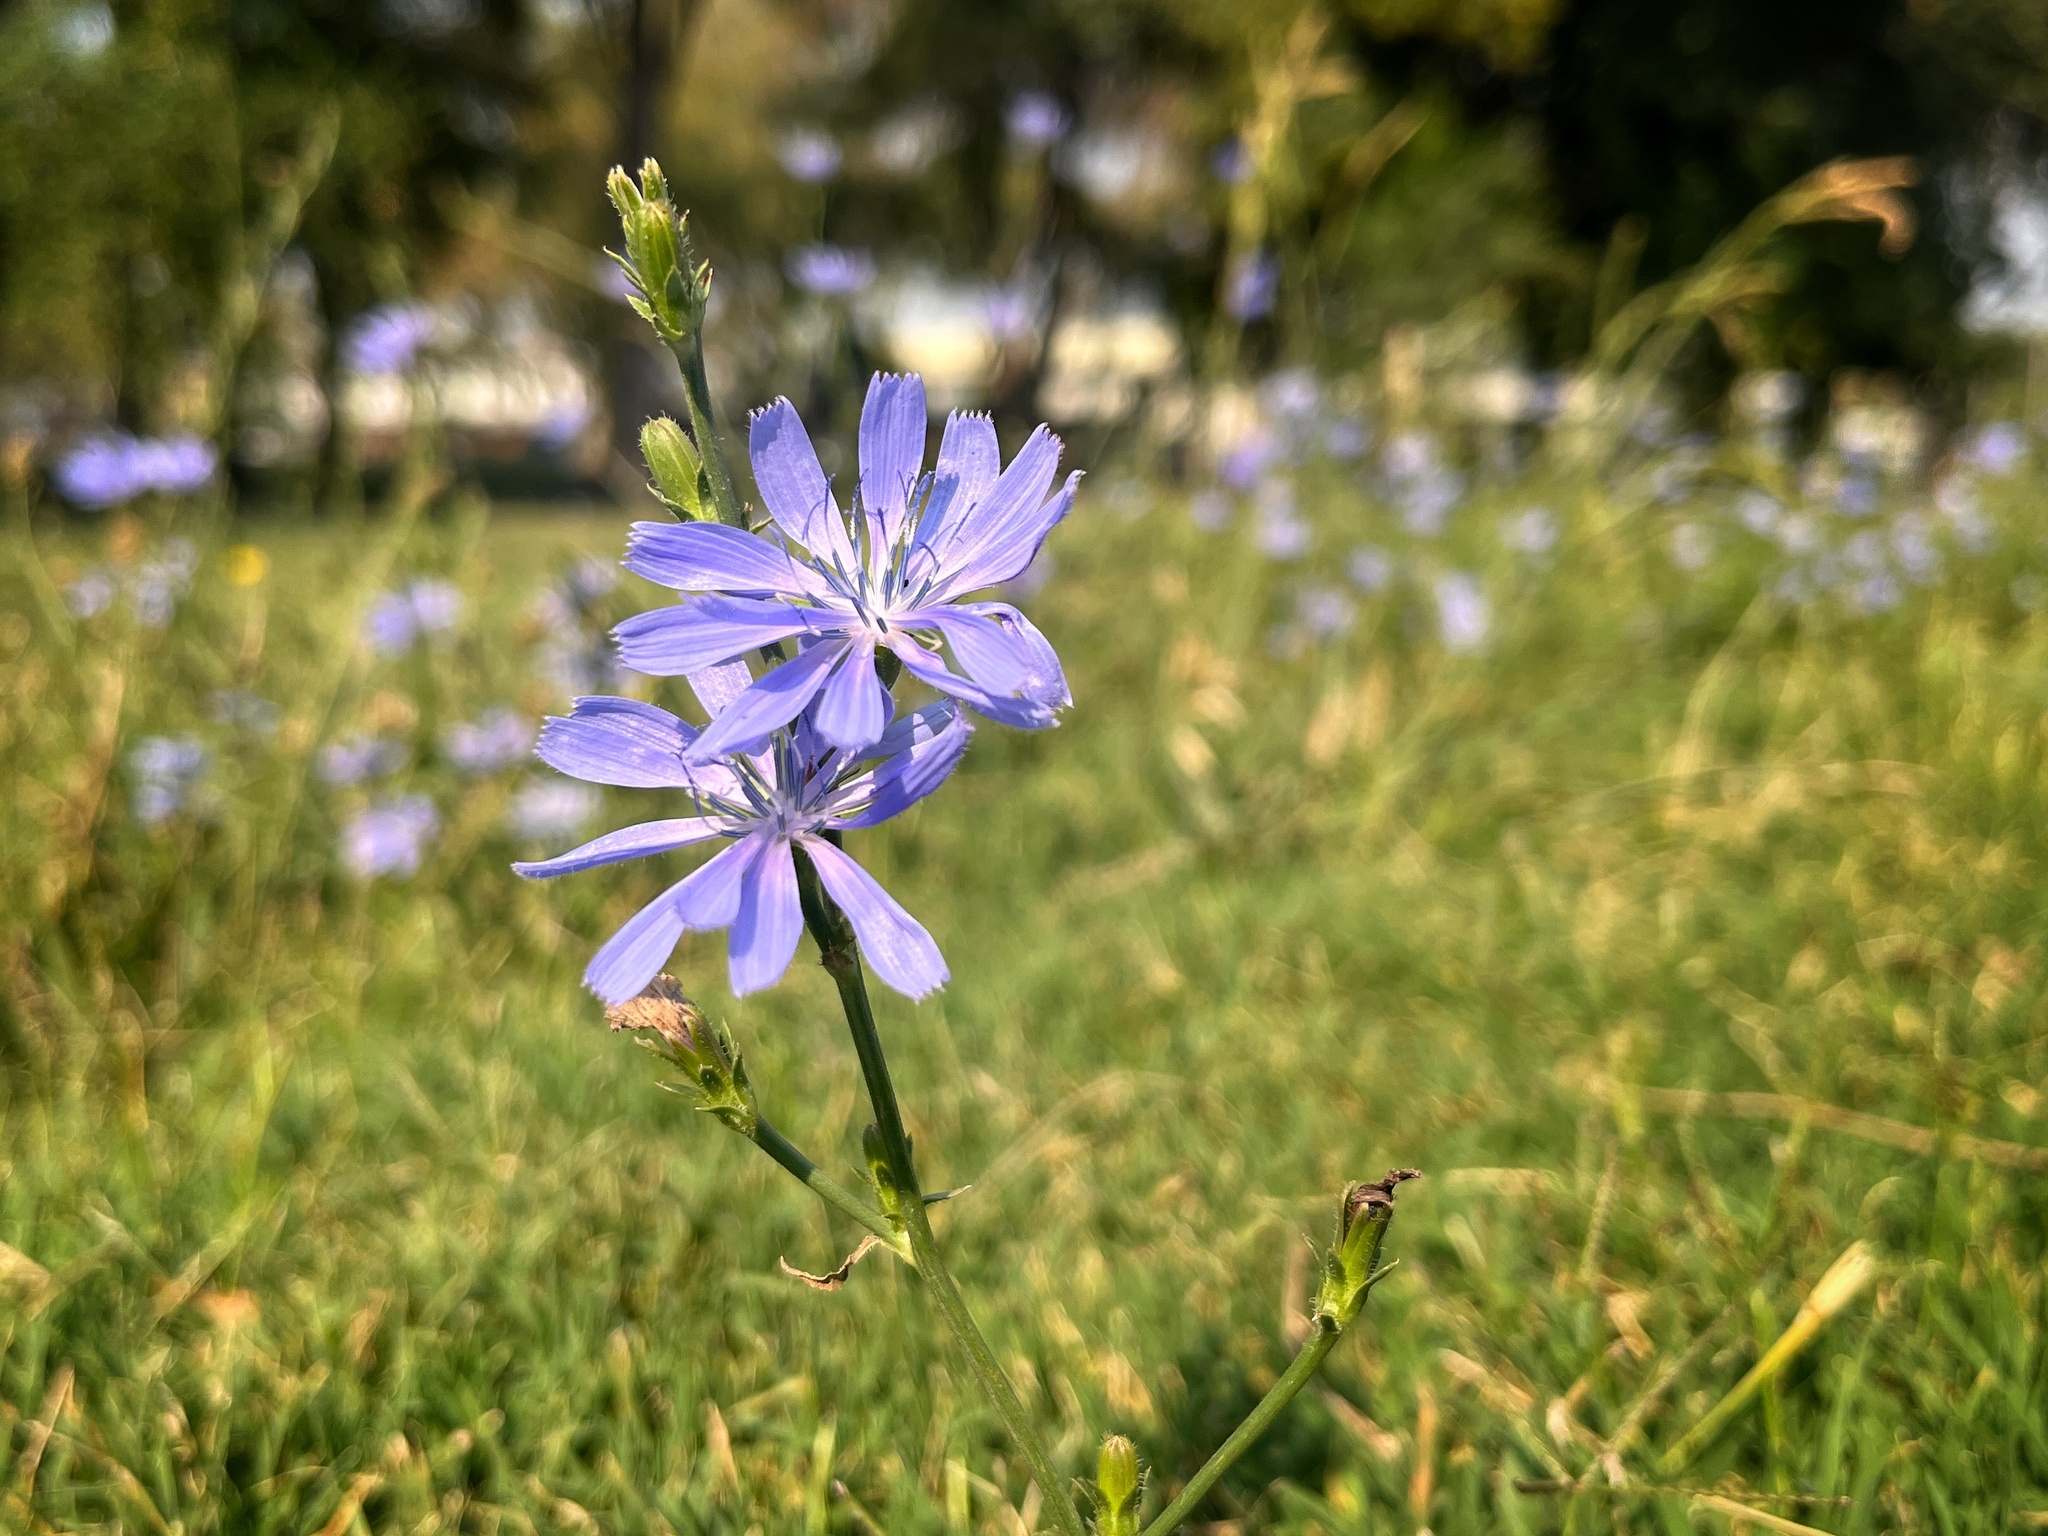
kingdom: Plantae
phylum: Tracheophyta
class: Magnoliopsida
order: Asterales
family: Asteraceae
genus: Cichorium
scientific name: Cichorium intybus
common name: Chicory
